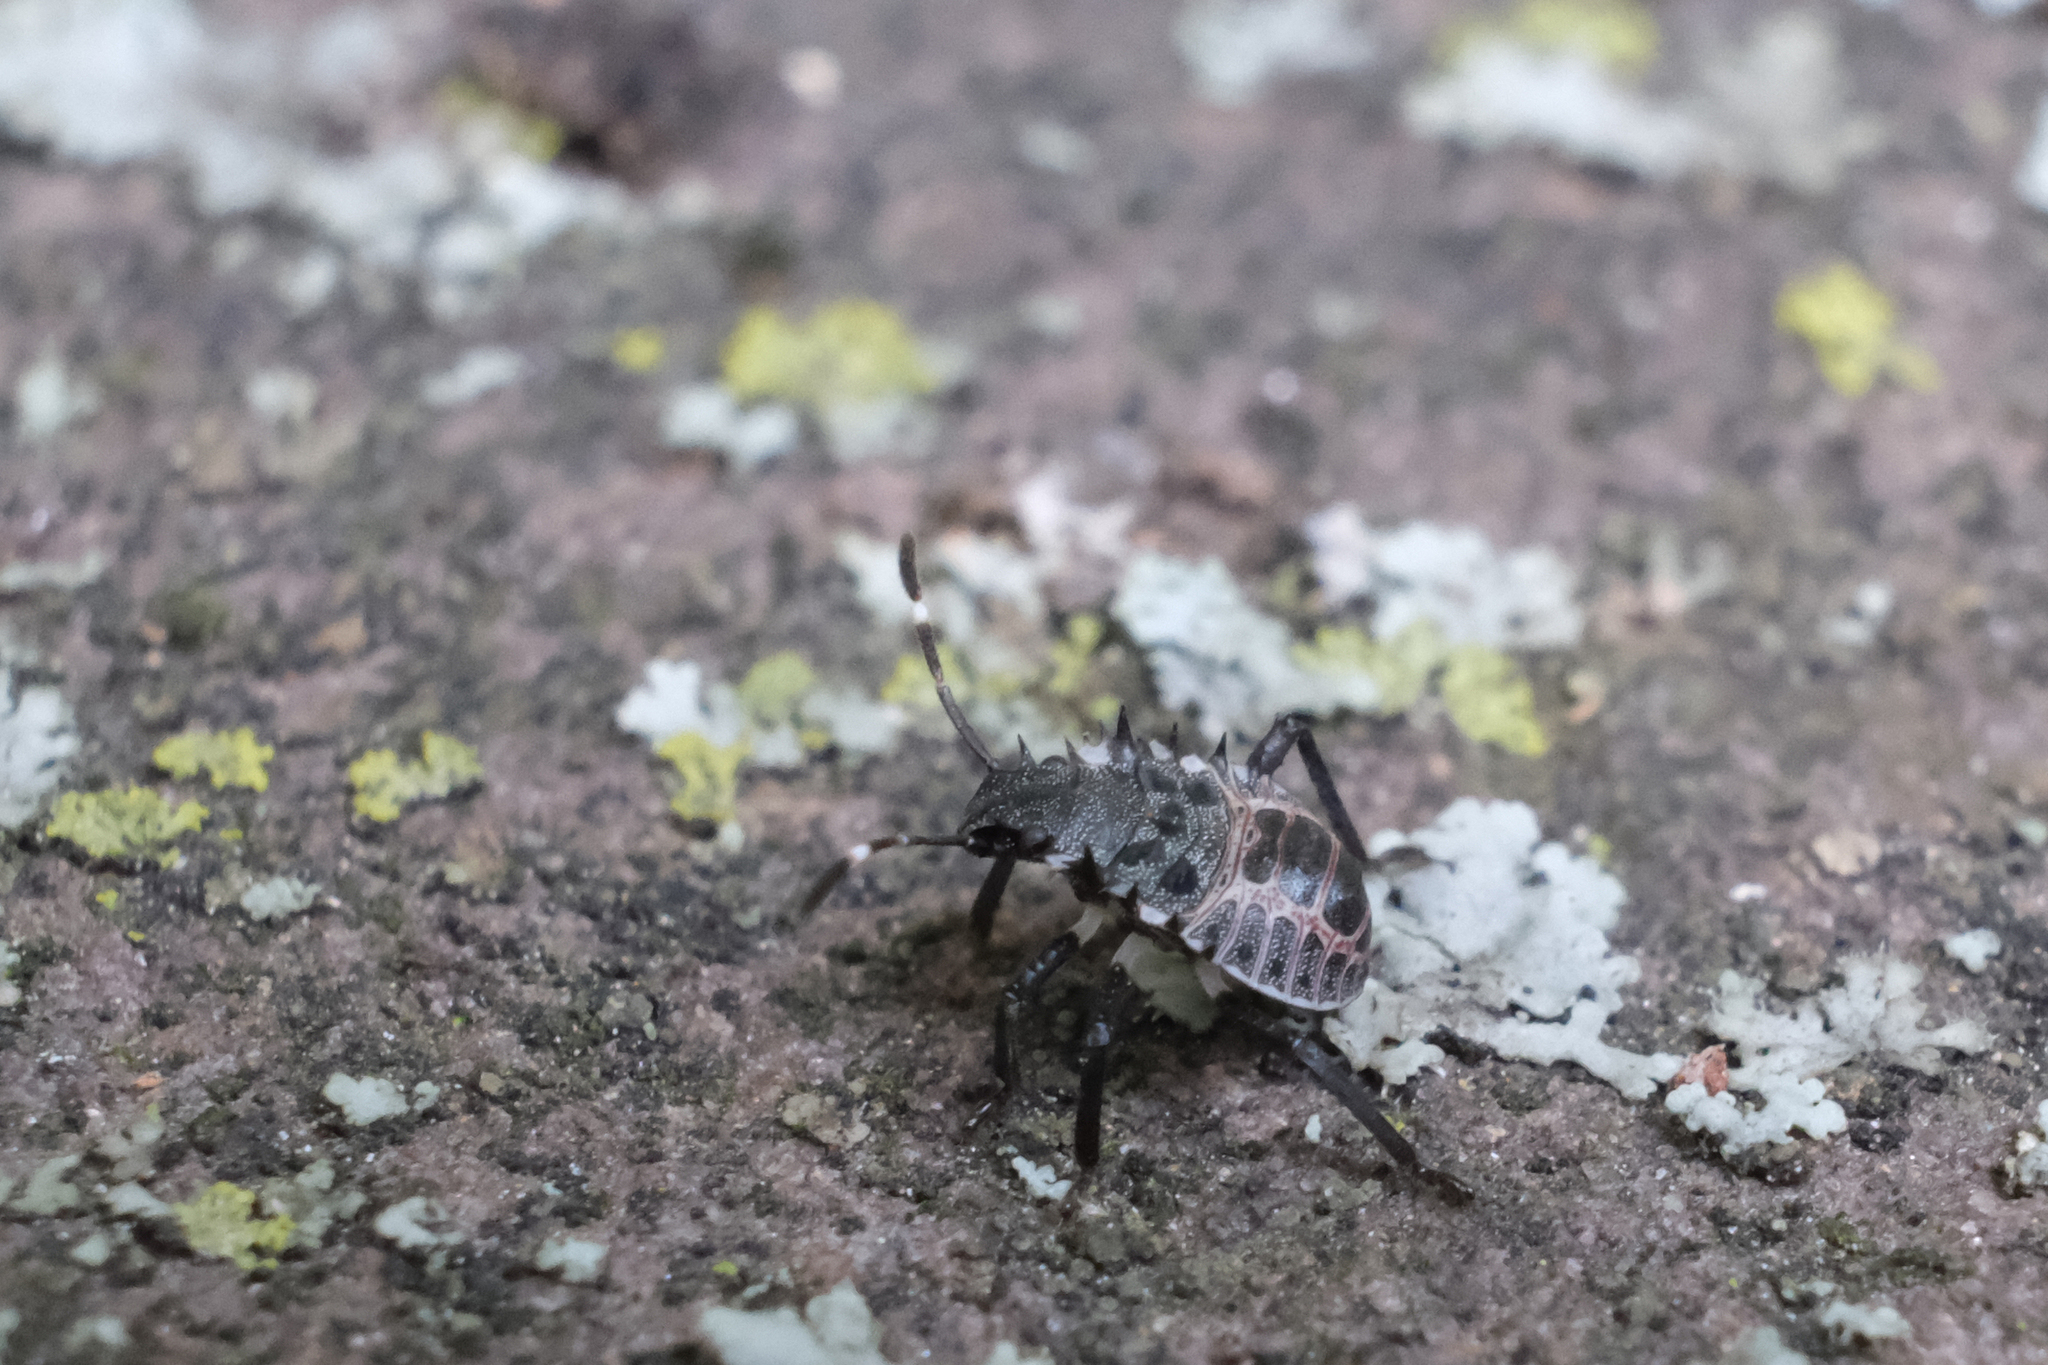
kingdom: Animalia
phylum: Arthropoda
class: Insecta
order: Hemiptera
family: Pentatomidae
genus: Halyomorpha
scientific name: Halyomorpha halys
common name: Brown marmorated stink bug
